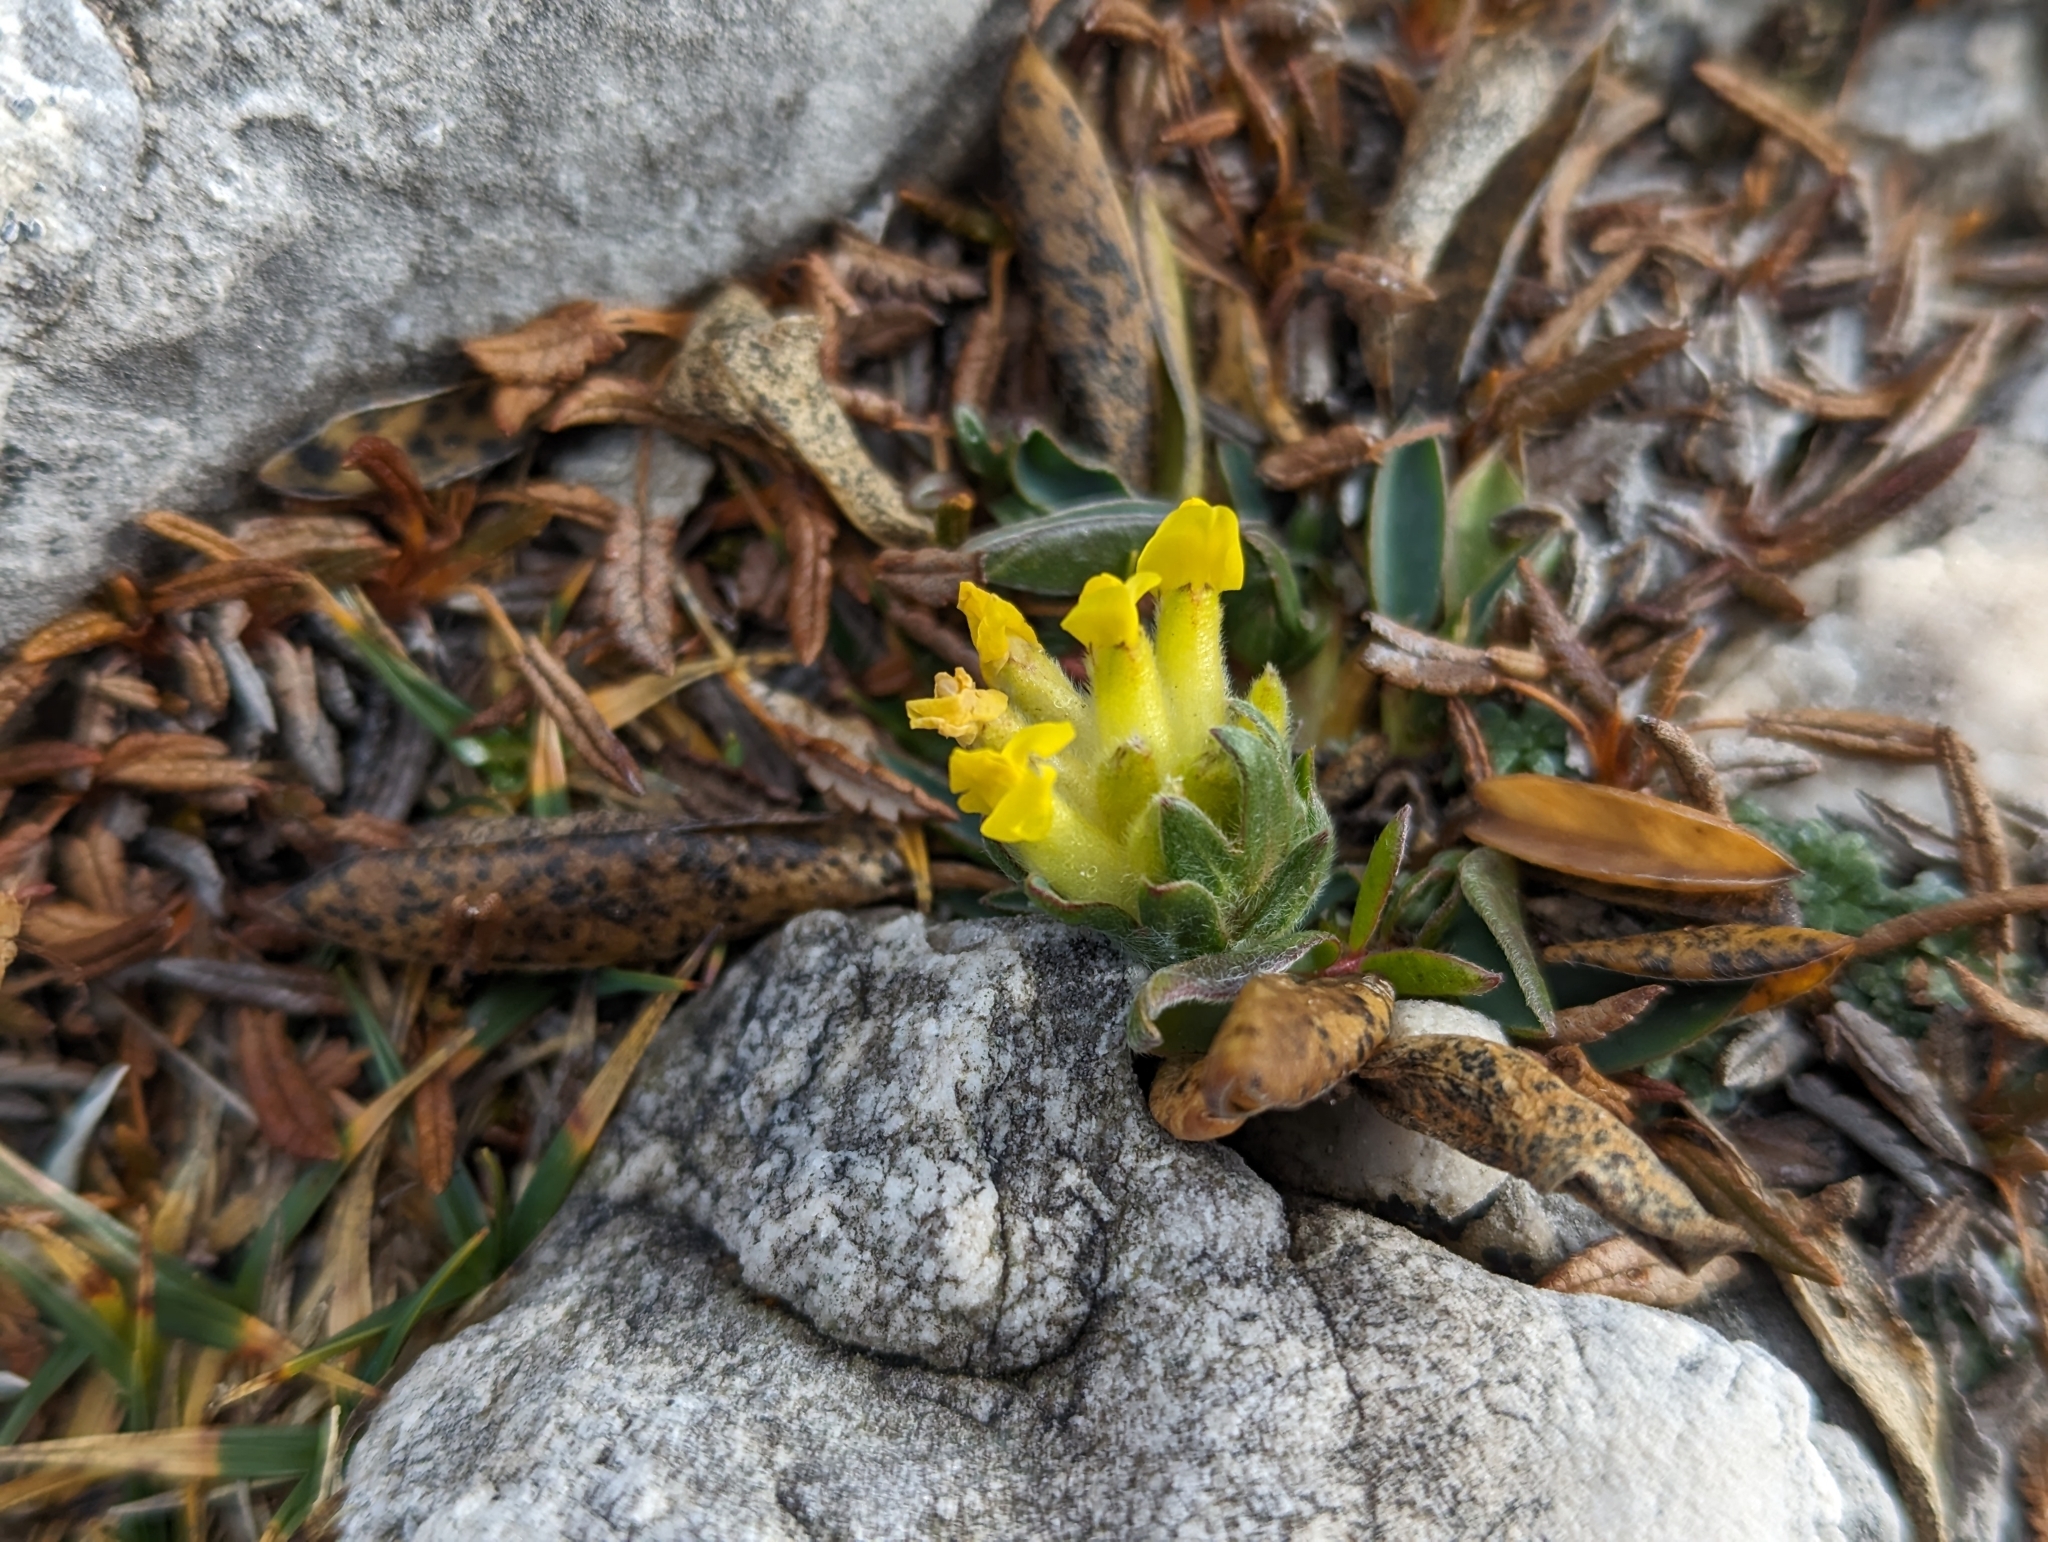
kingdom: Plantae
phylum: Tracheophyta
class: Magnoliopsida
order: Fabales
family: Fabaceae
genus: Anthyllis
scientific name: Anthyllis vulneraria
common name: Kidney vetch
